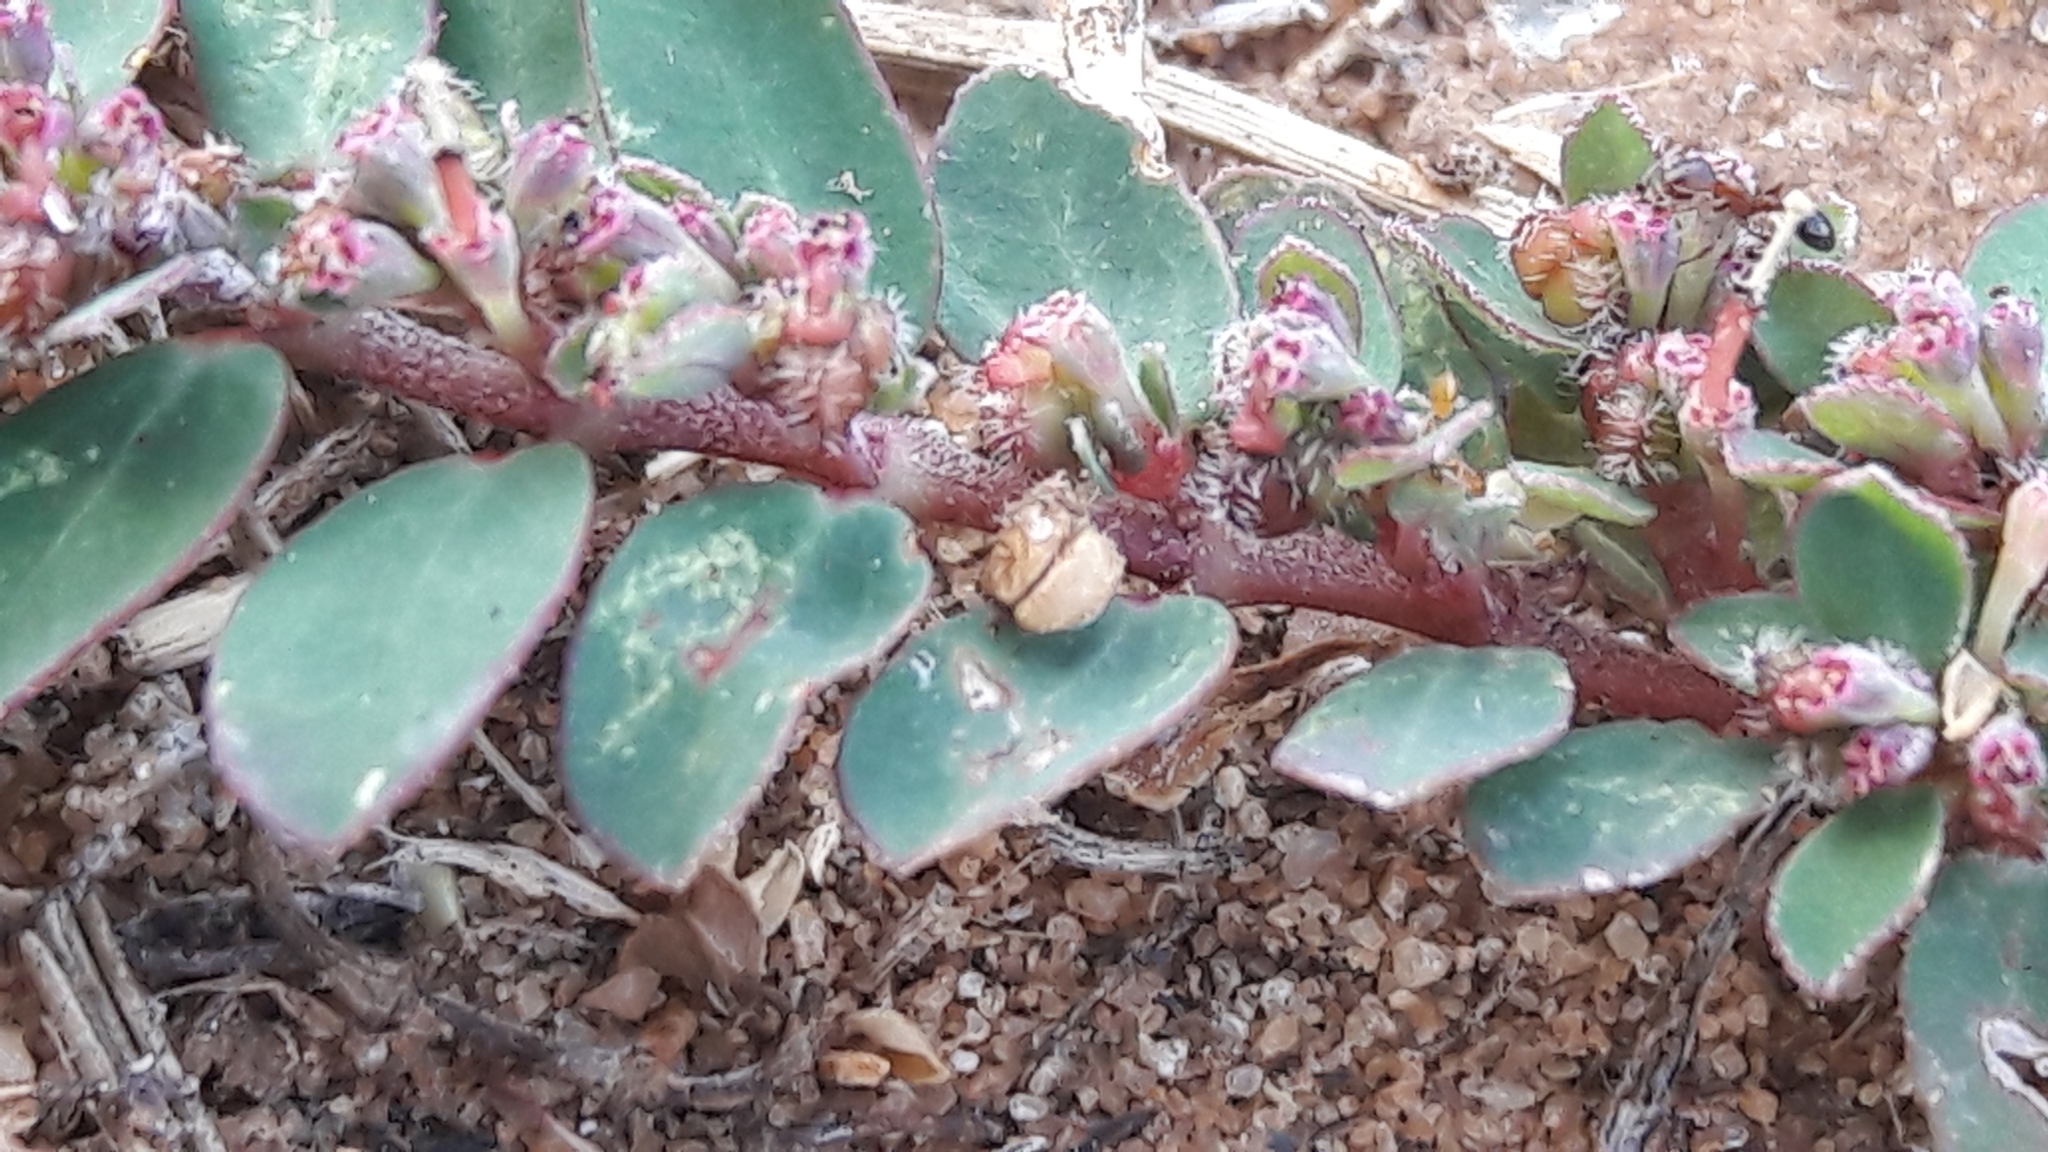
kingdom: Plantae
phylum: Tracheophyta
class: Magnoliopsida
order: Malpighiales
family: Euphorbiaceae
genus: Euphorbia
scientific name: Euphorbia prostrata
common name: Prostrate sandmat
